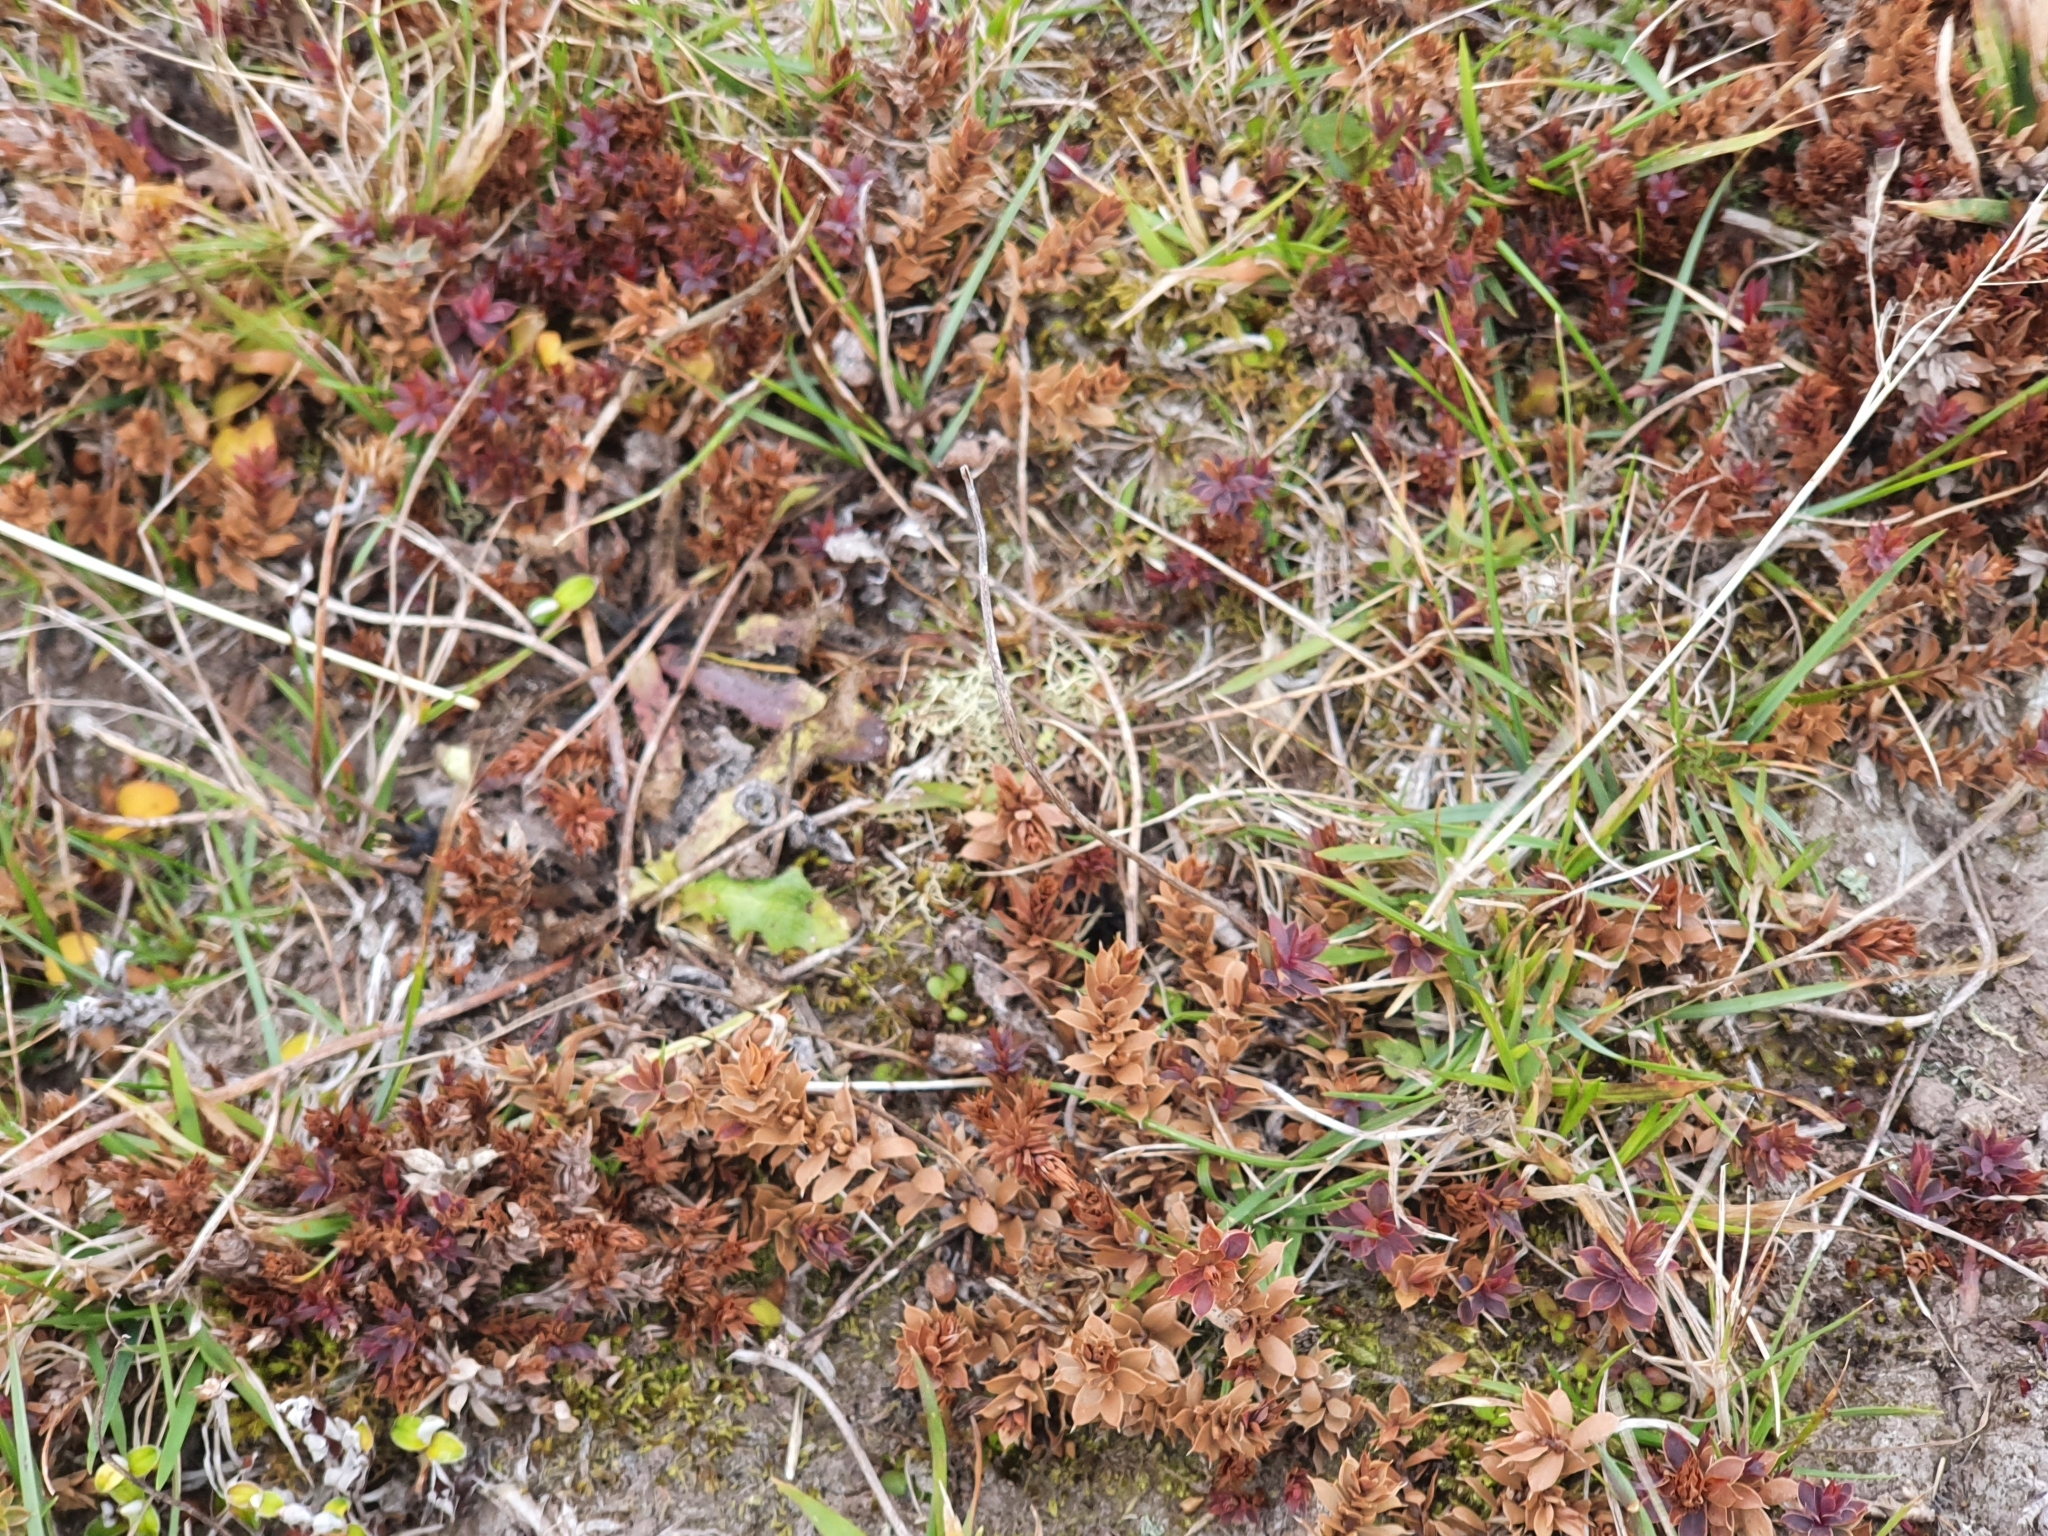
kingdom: Plantae
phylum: Tracheophyta
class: Magnoliopsida
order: Ericales
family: Ericaceae
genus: Styphelia
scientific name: Styphelia nesophila
